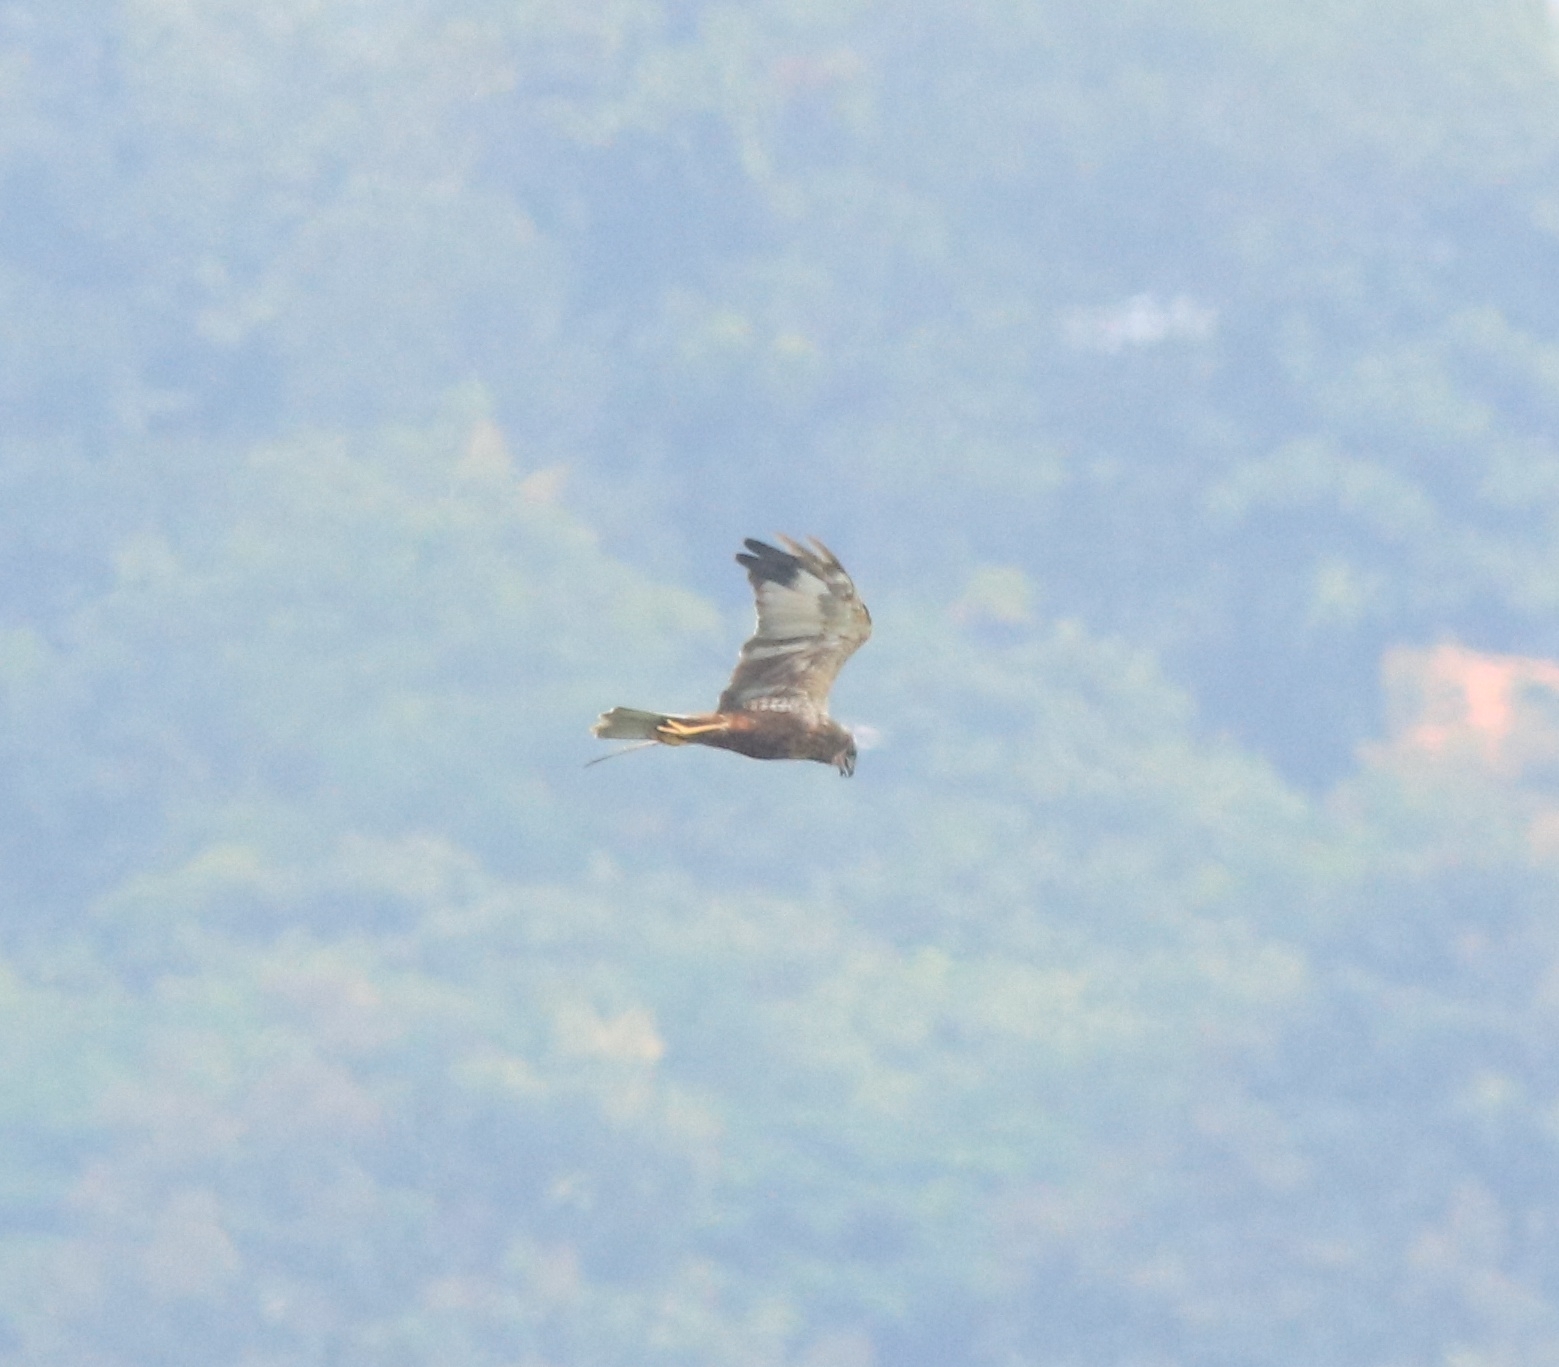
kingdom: Animalia
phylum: Chordata
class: Aves
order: Accipitriformes
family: Accipitridae
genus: Circus
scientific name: Circus aeruginosus
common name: Western marsh harrier
